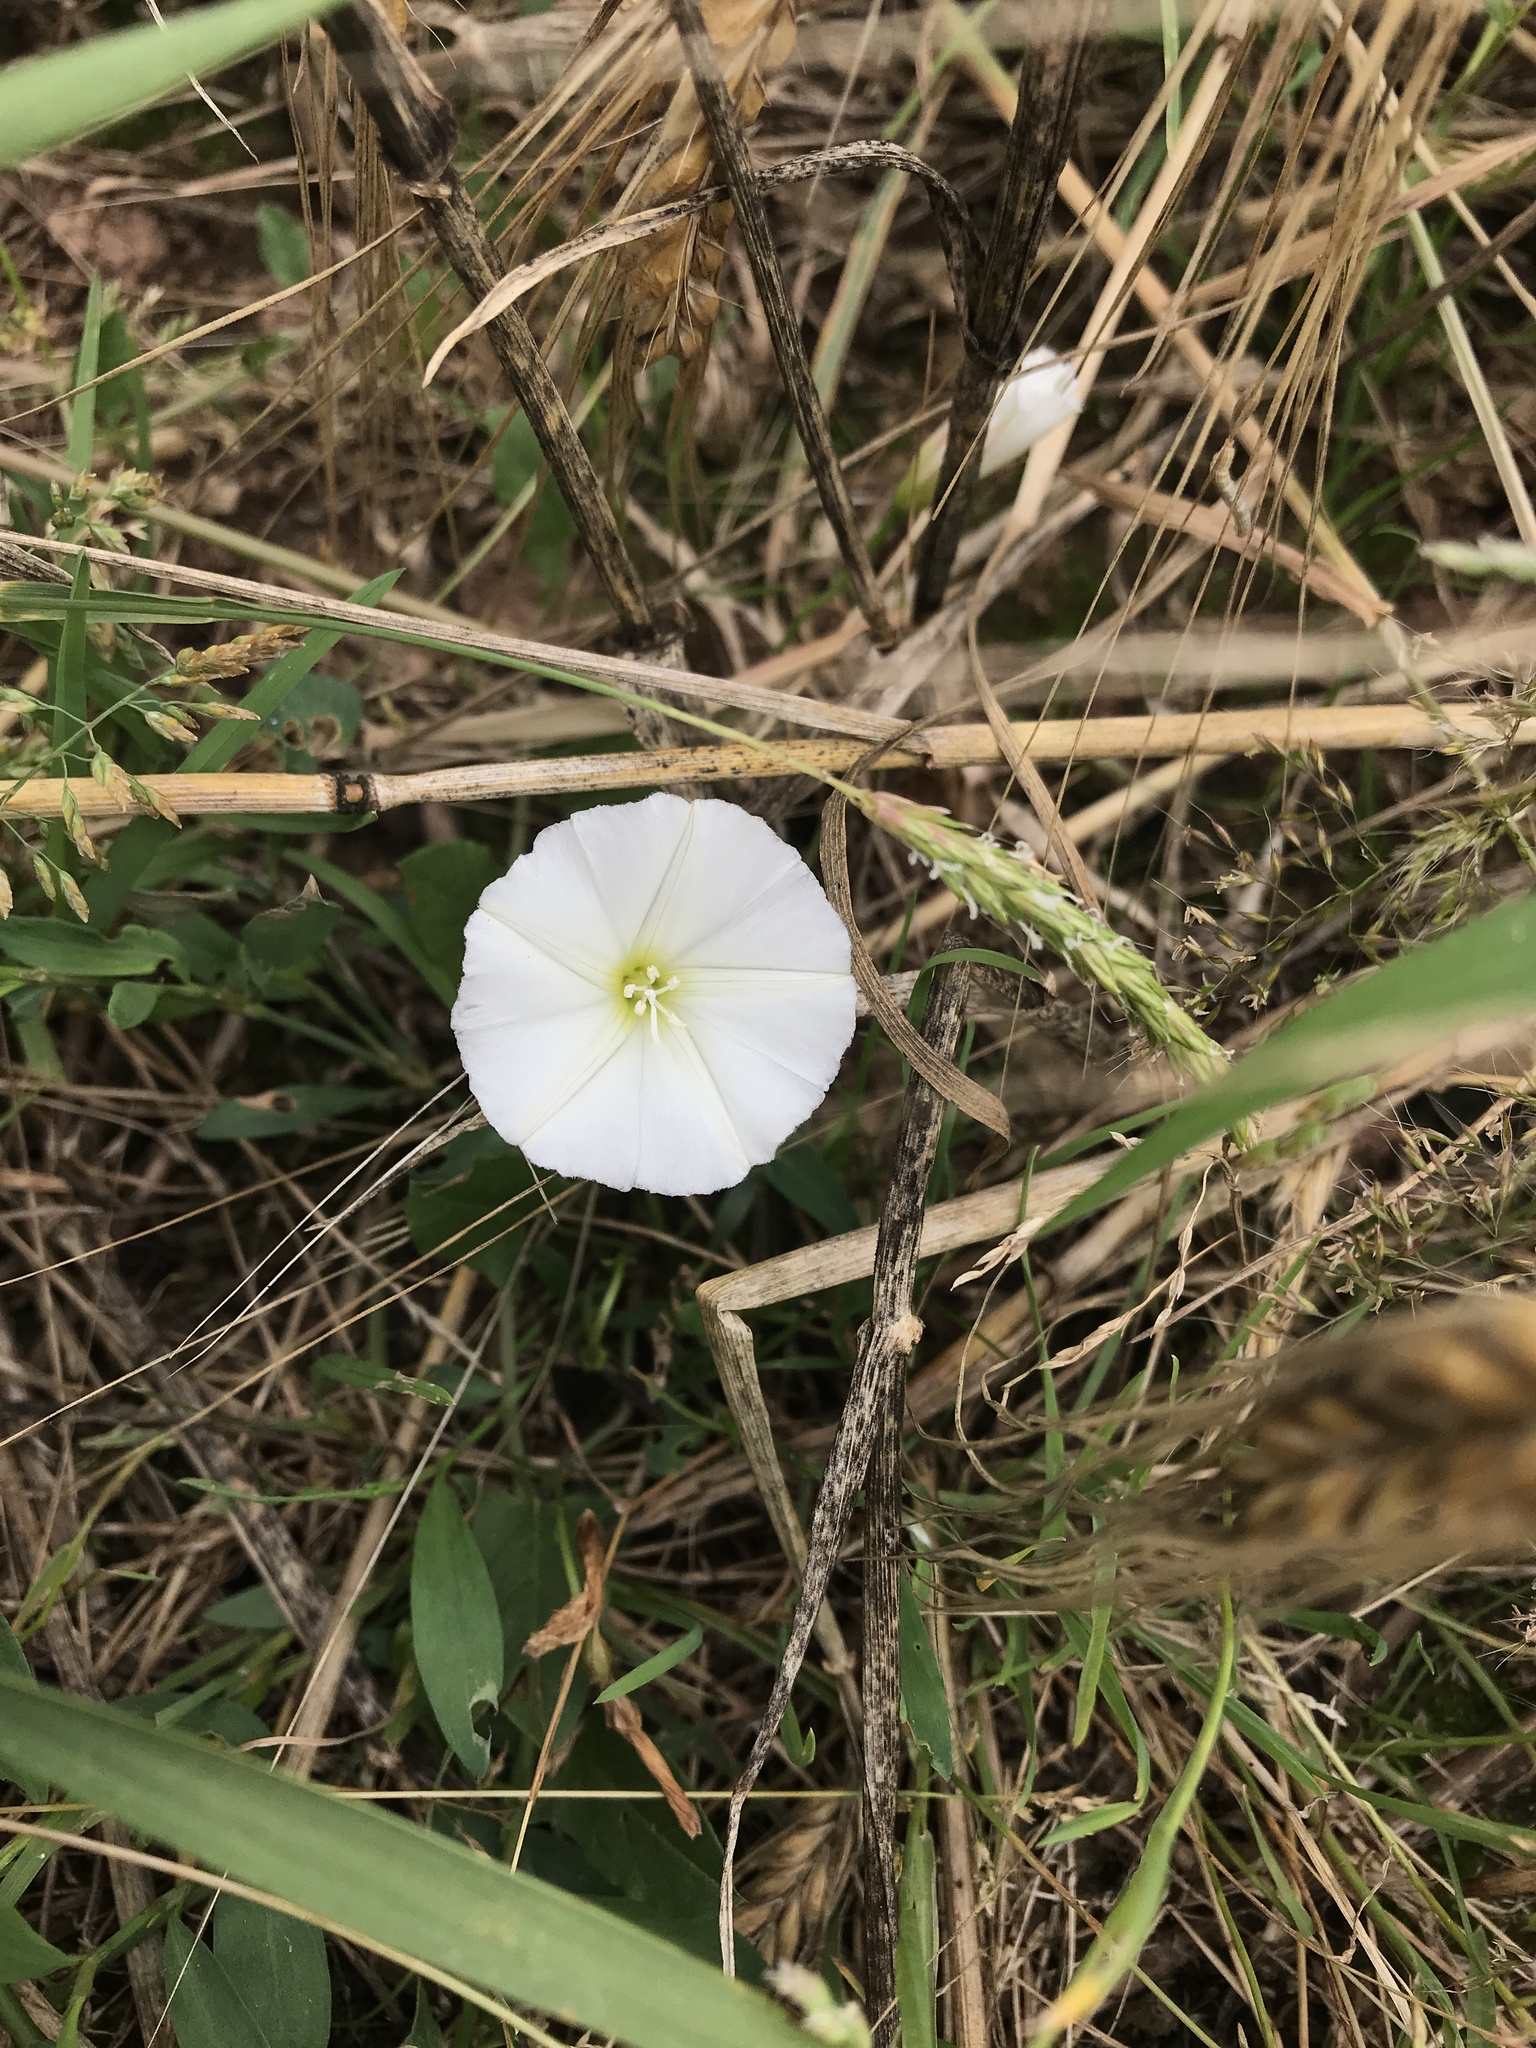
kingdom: Plantae
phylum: Tracheophyta
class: Magnoliopsida
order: Solanales
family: Convolvulaceae
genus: Convolvulus
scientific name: Convolvulus arvensis
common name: Field bindweed
